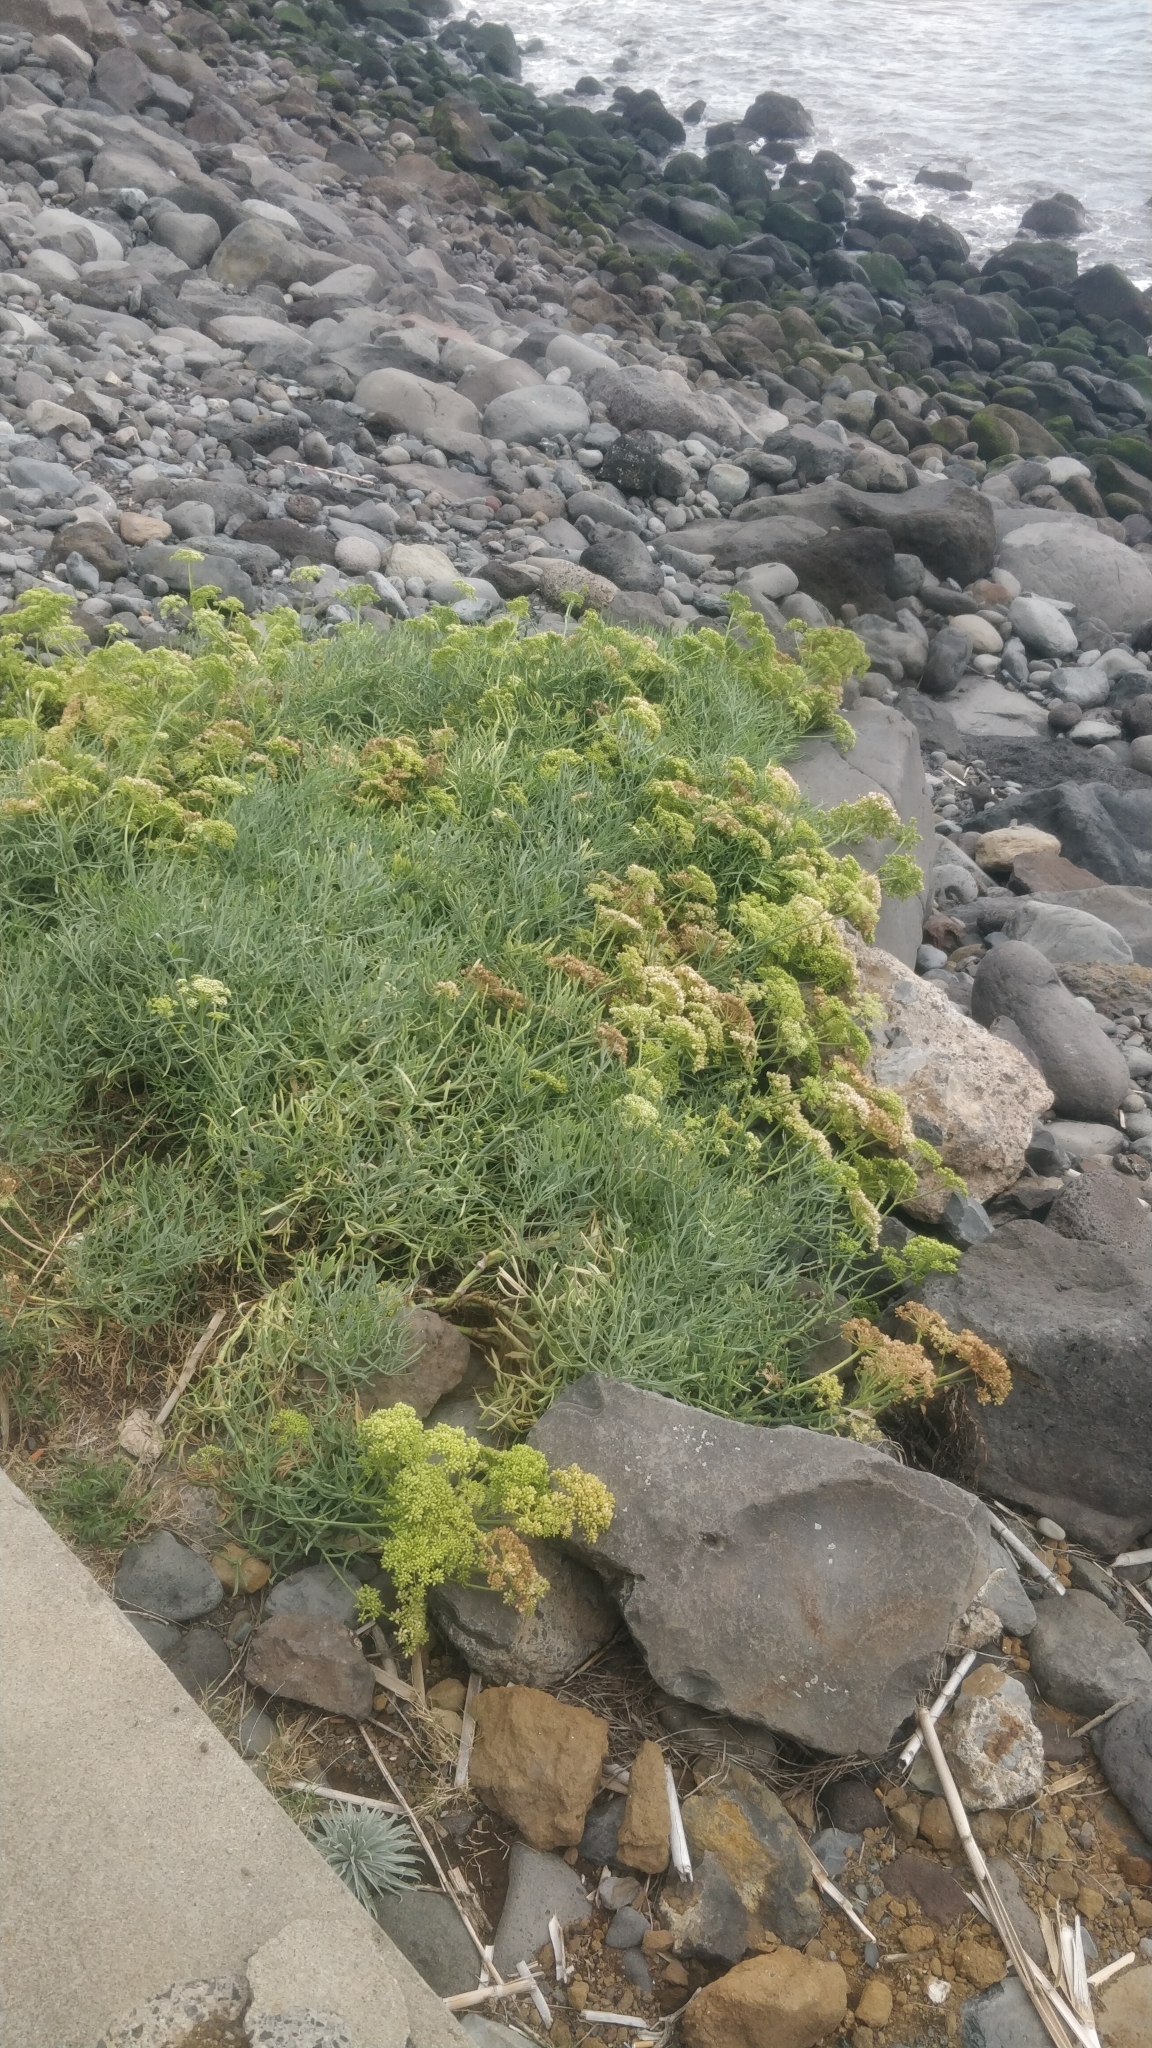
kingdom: Plantae
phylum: Tracheophyta
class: Magnoliopsida
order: Apiales
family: Apiaceae
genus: Crithmum
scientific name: Crithmum maritimum
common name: Rock samphire
